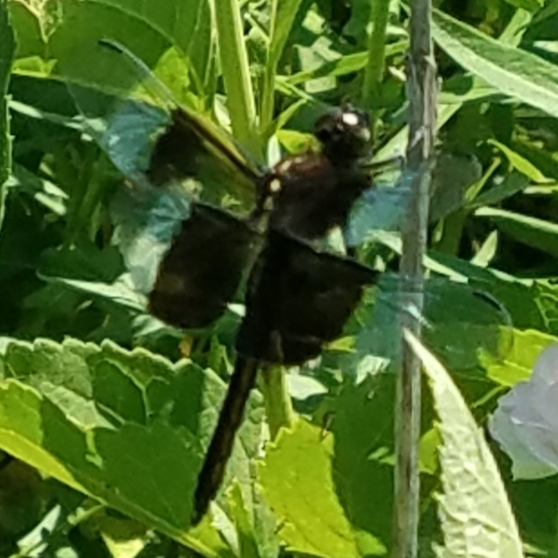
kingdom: Animalia
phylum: Arthropoda
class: Insecta
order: Odonata
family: Libellulidae
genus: Libellula
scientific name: Libellula luctuosa
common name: Widow skimmer
